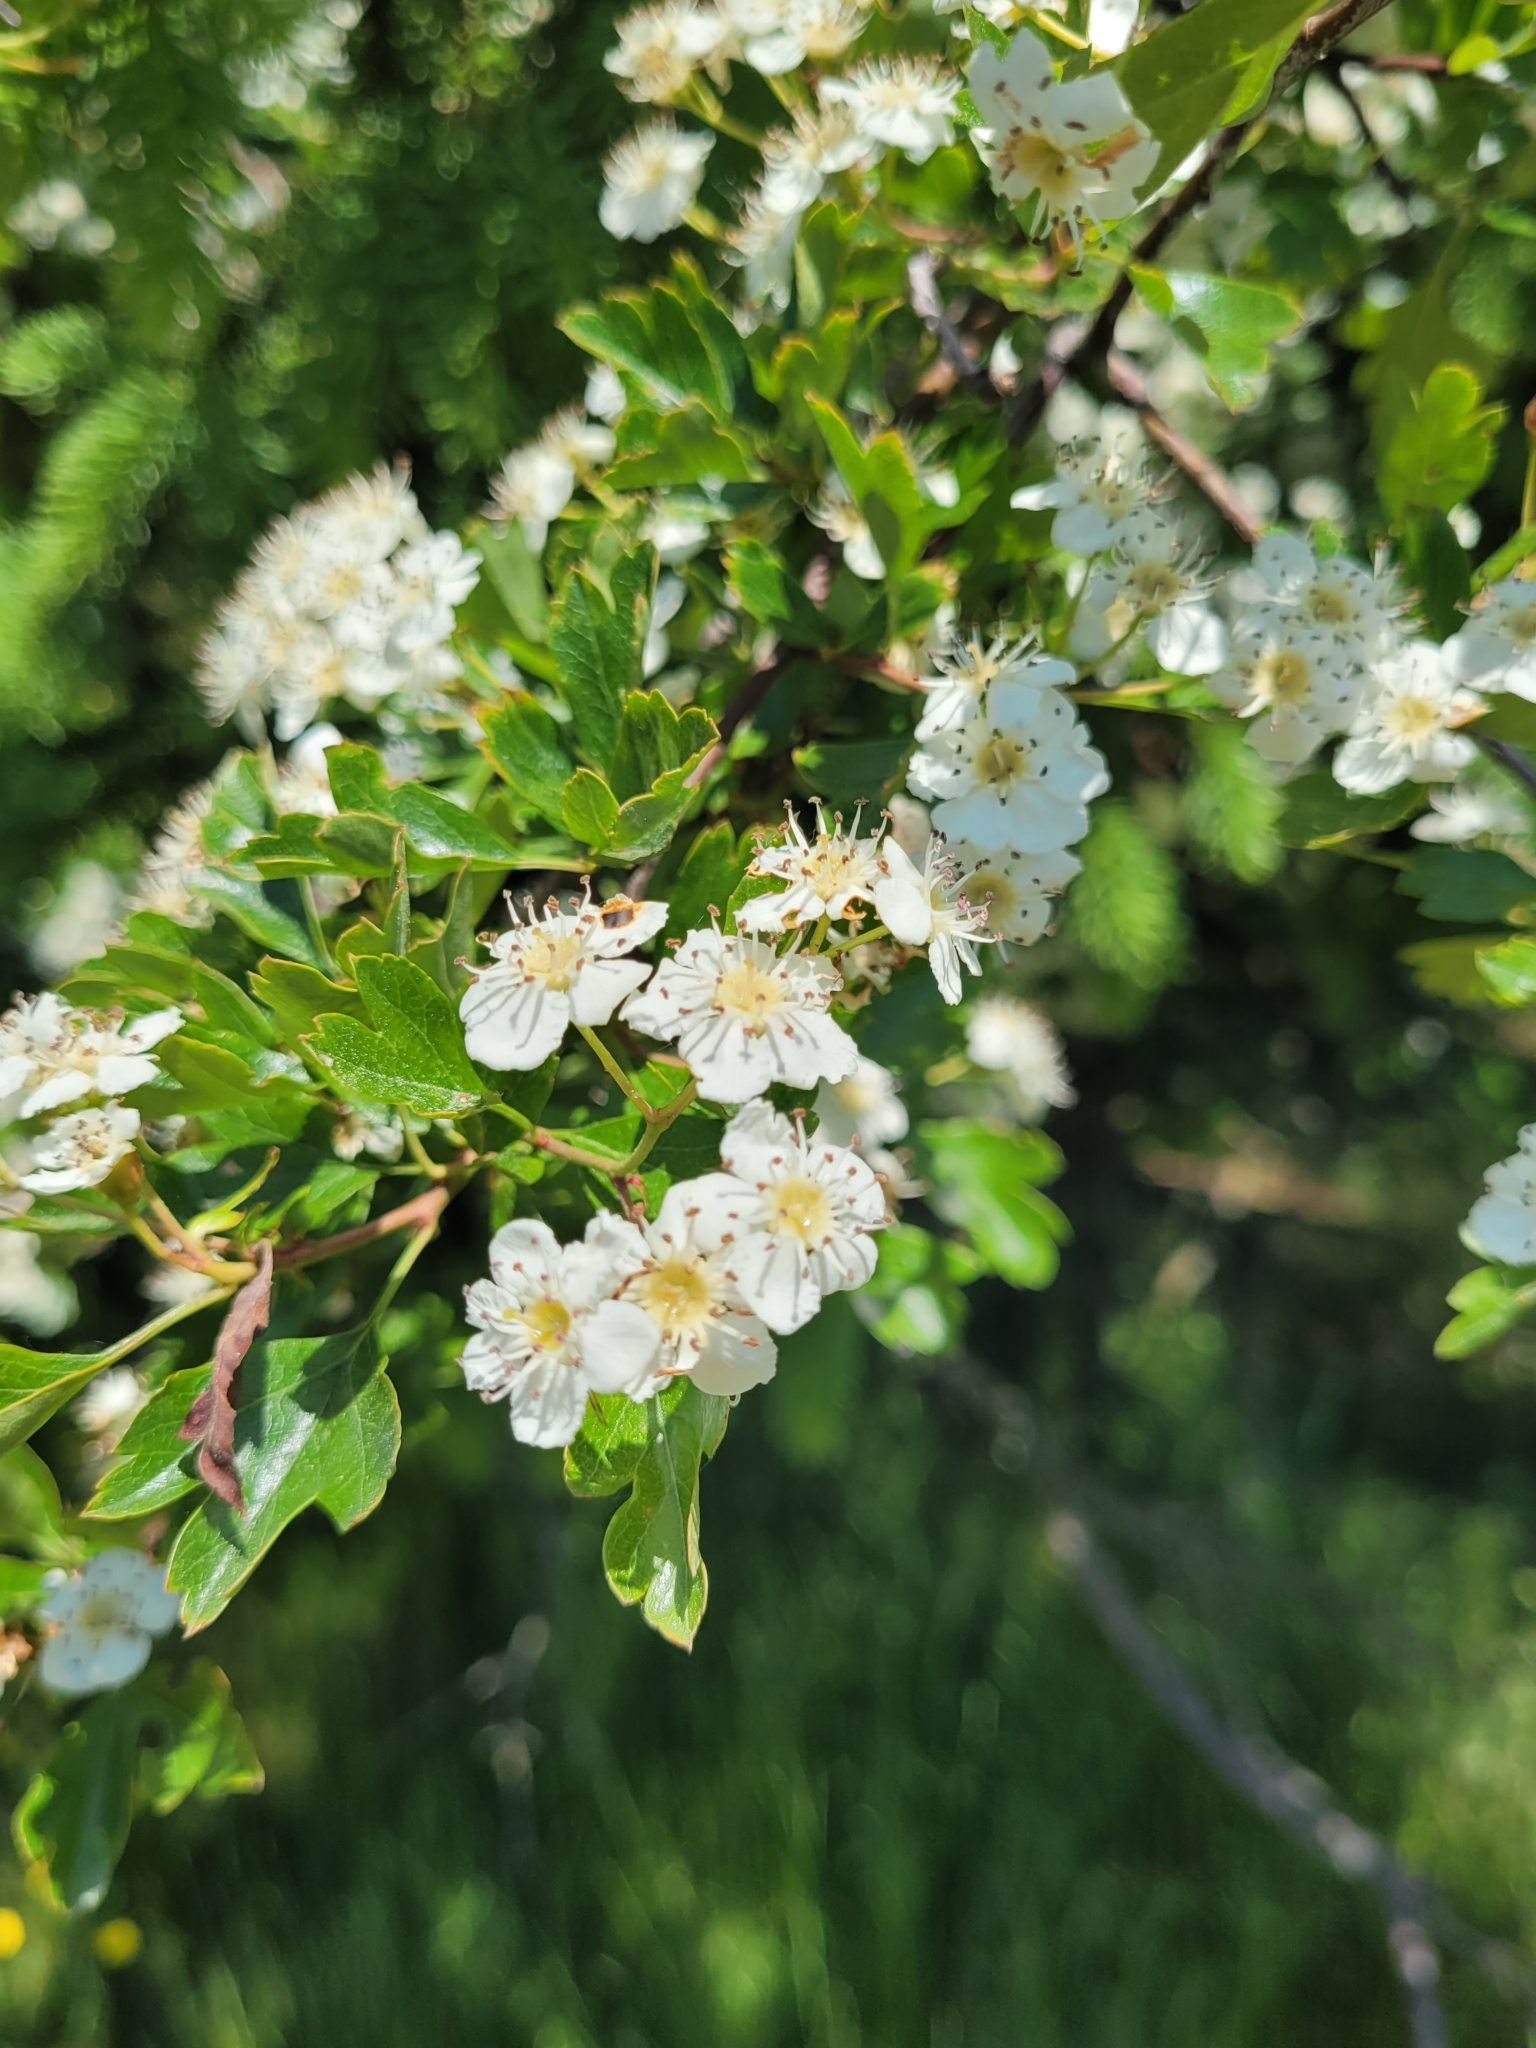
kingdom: Plantae
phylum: Tracheophyta
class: Magnoliopsida
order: Rosales
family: Rosaceae
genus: Crataegus
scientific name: Crataegus monogyna
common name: Hawthorn
